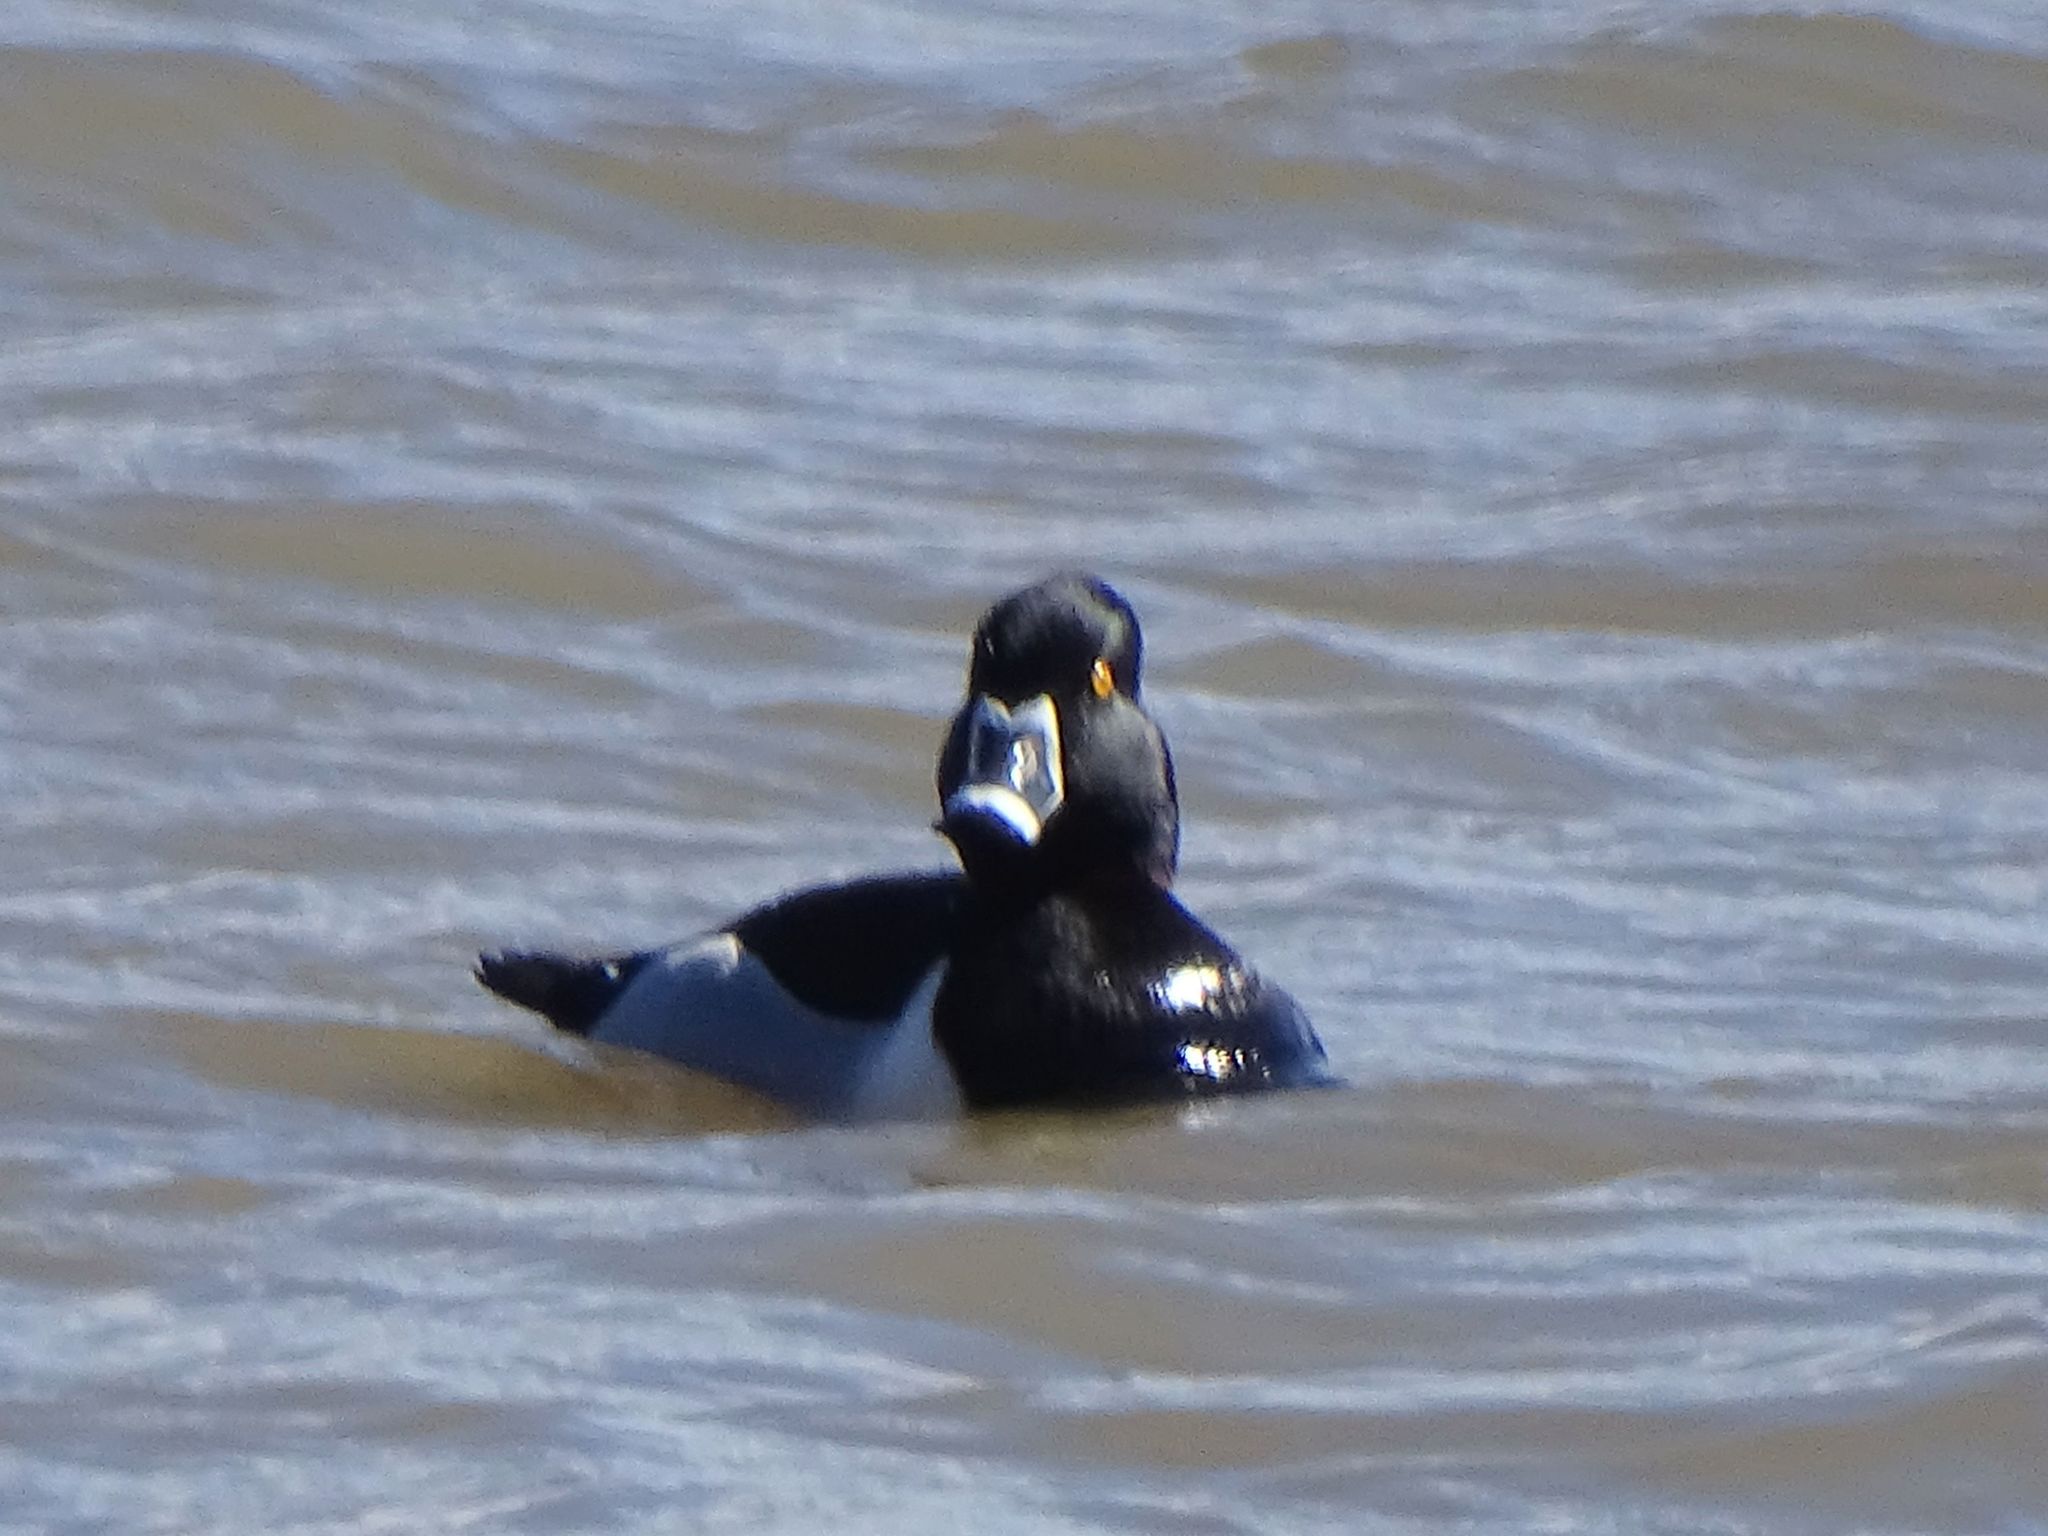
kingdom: Animalia
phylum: Chordata
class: Aves
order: Anseriformes
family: Anatidae
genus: Aythya
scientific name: Aythya collaris
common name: Ring-necked duck
